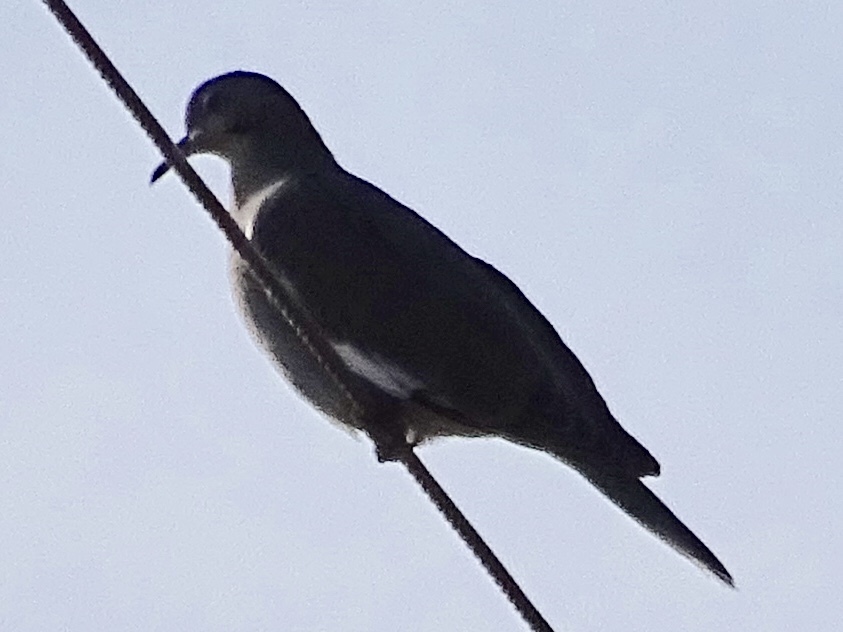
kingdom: Animalia
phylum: Chordata
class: Aves
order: Columbiformes
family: Columbidae
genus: Zenaida
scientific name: Zenaida asiatica
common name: White-winged dove
